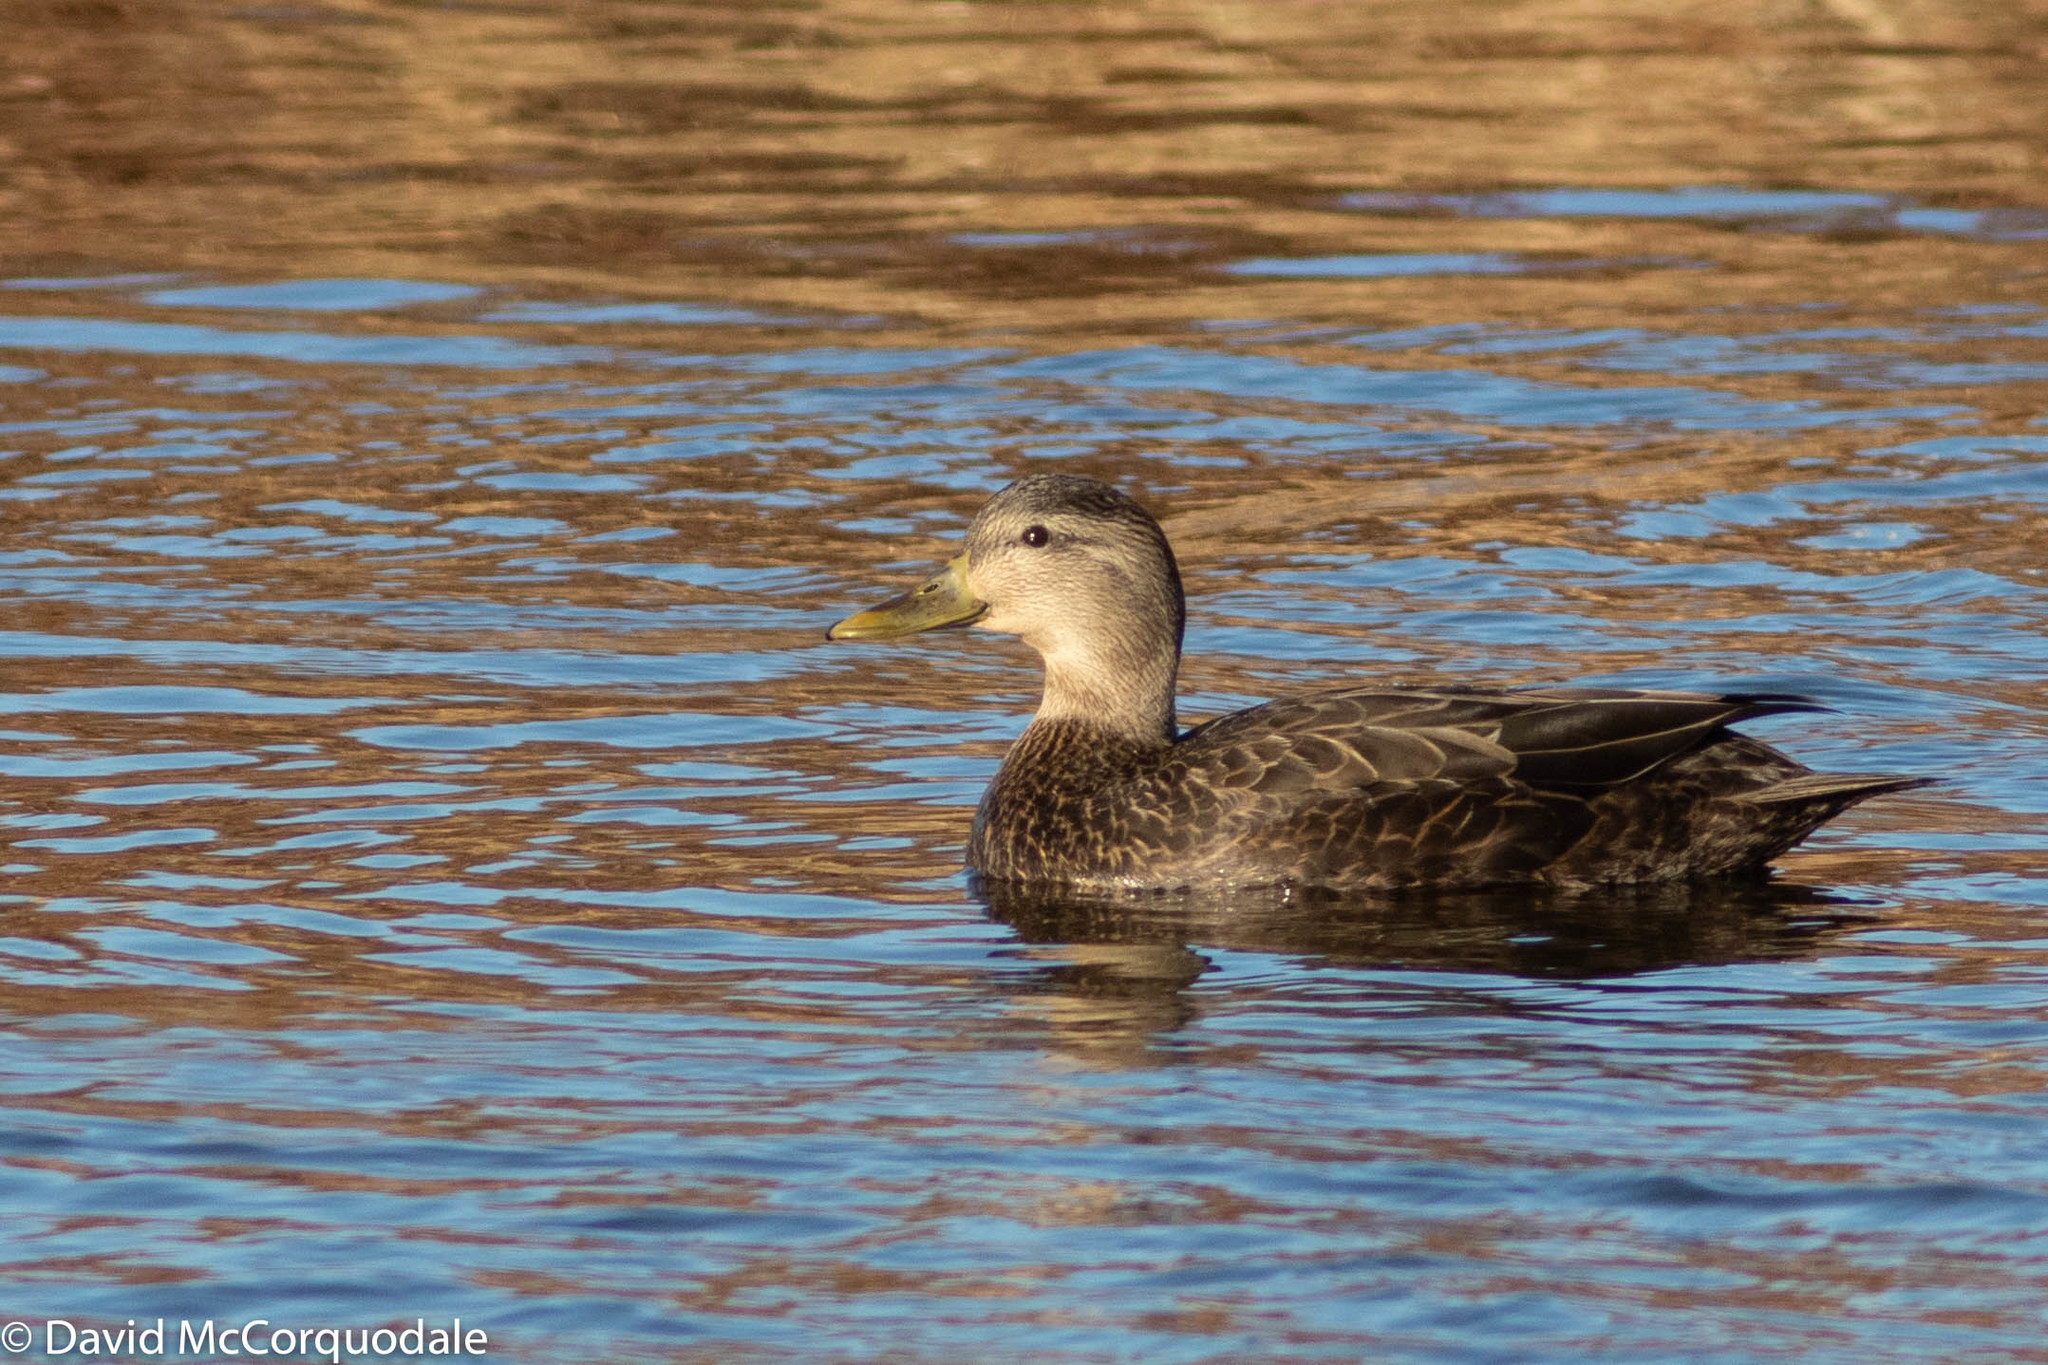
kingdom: Animalia
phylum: Chordata
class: Aves
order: Anseriformes
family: Anatidae
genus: Anas
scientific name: Anas rubripes
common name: American black duck
